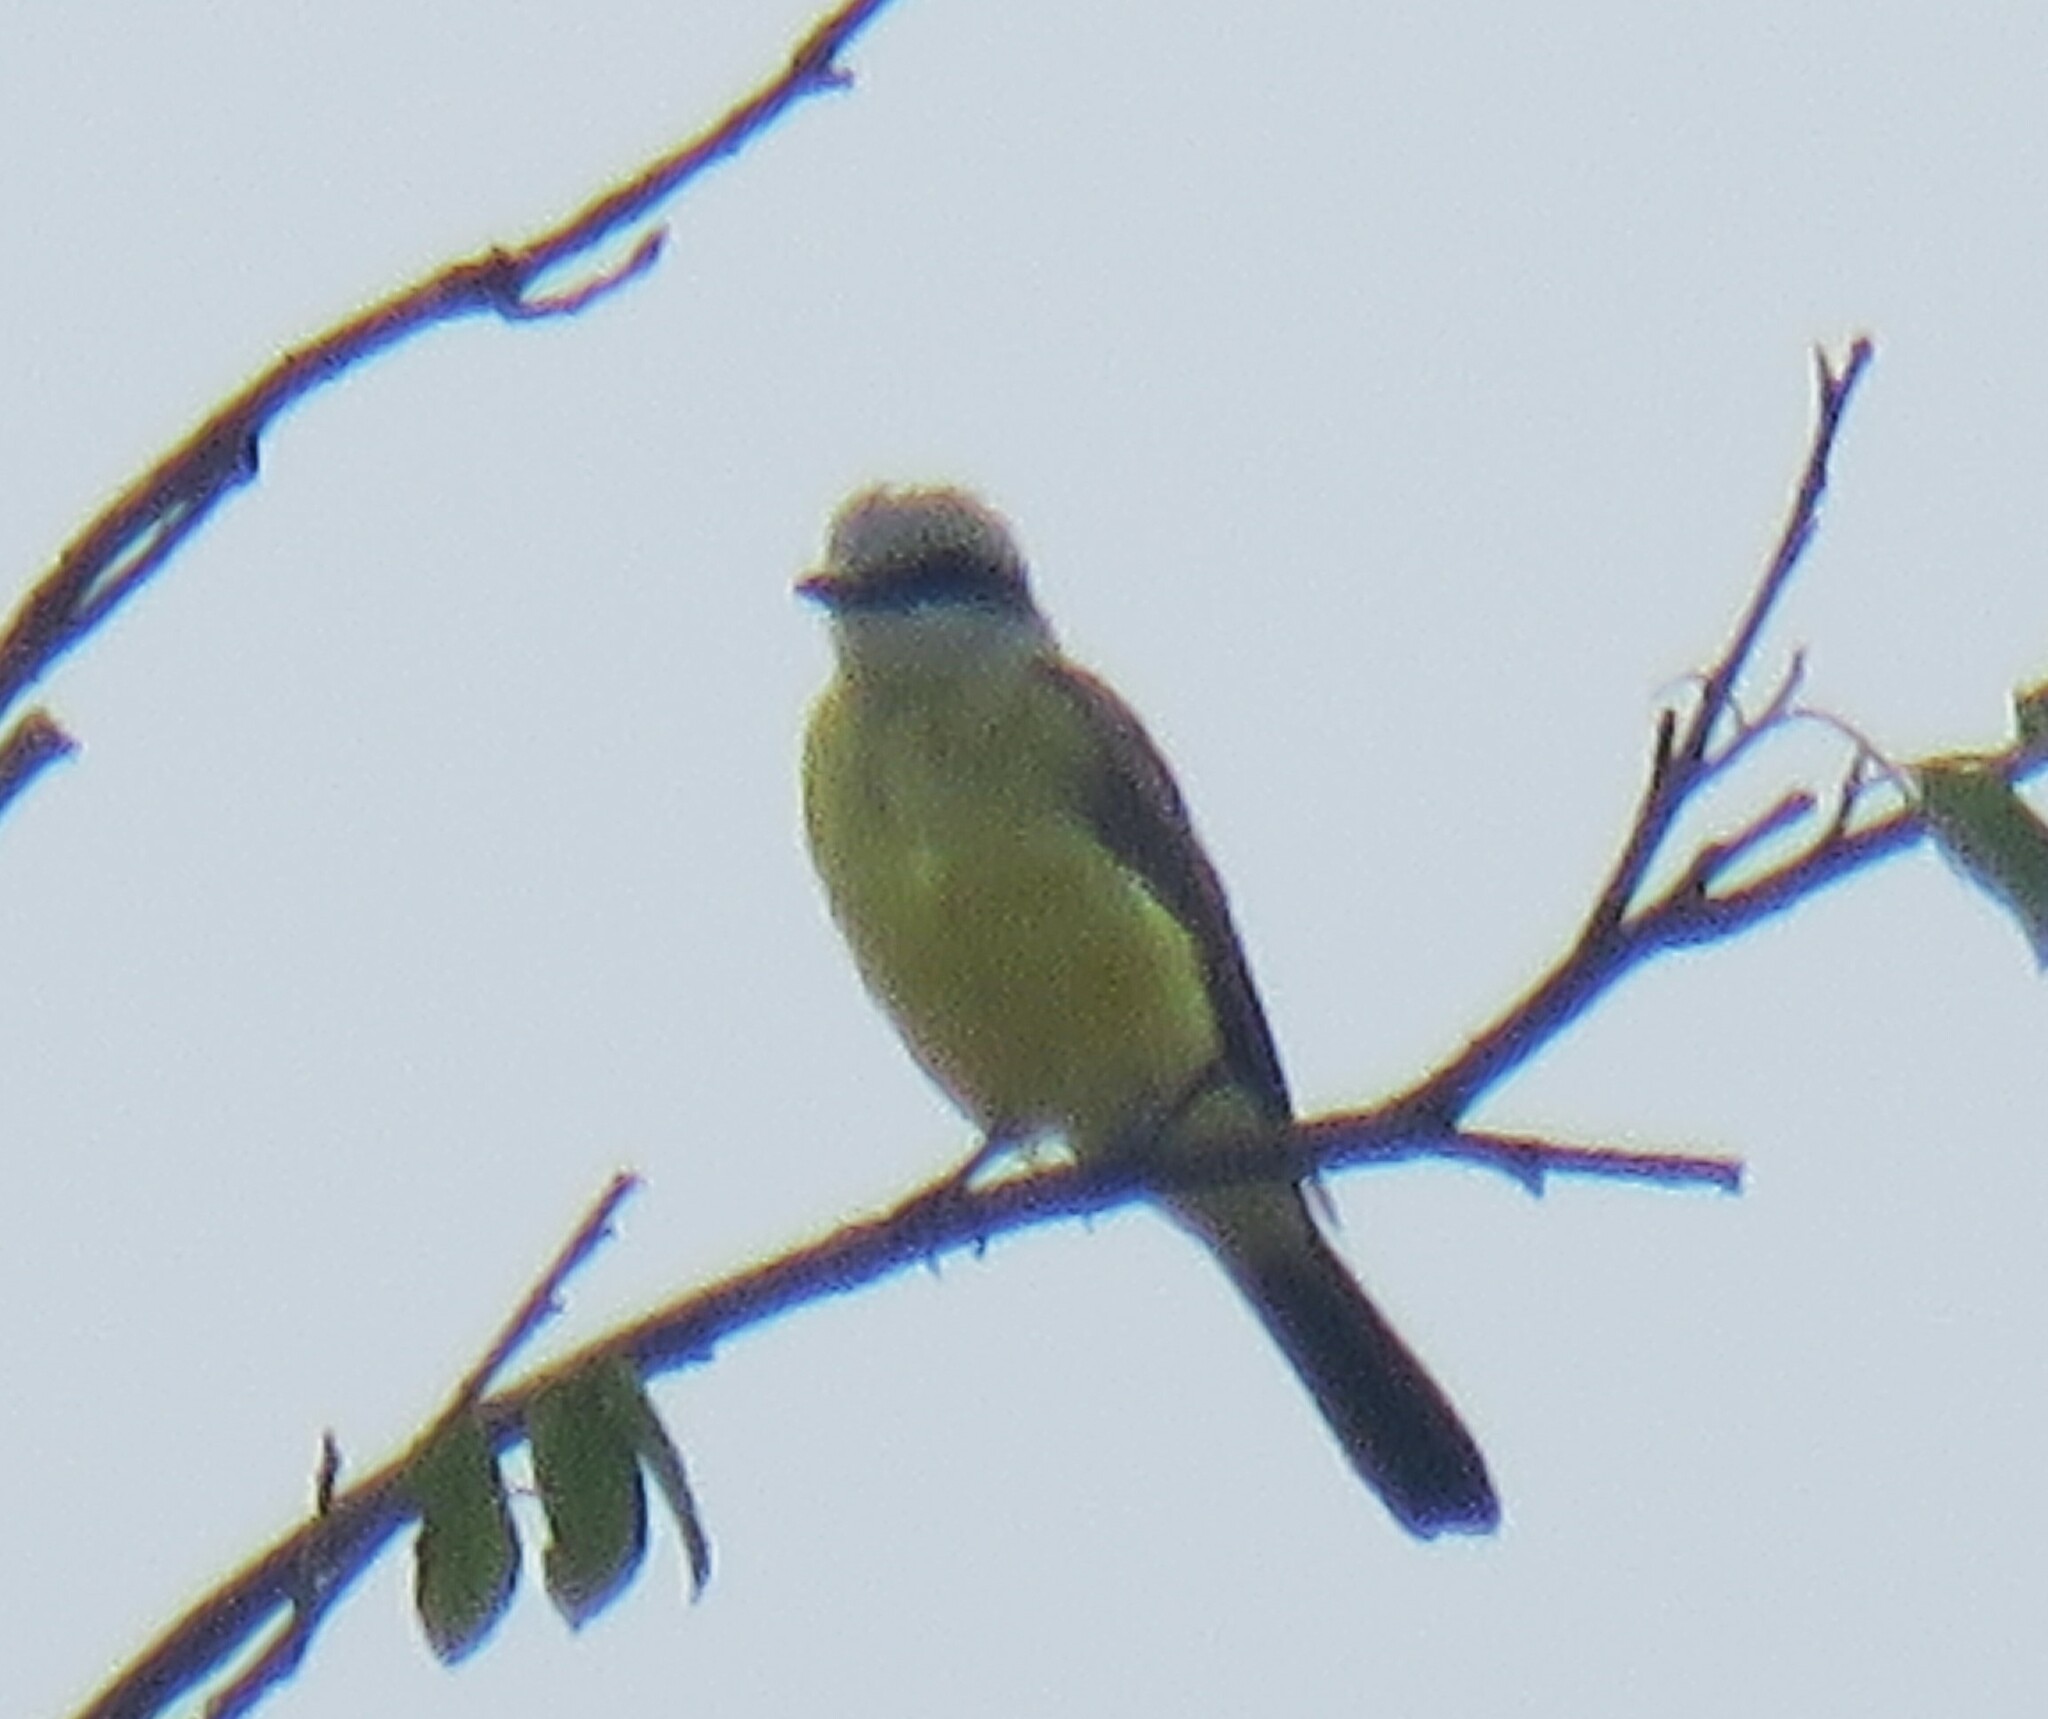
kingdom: Animalia
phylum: Chordata
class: Aves
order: Passeriformes
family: Tyrannidae
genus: Tyrannus
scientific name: Tyrannus albogularis
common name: White-throated kingbird
